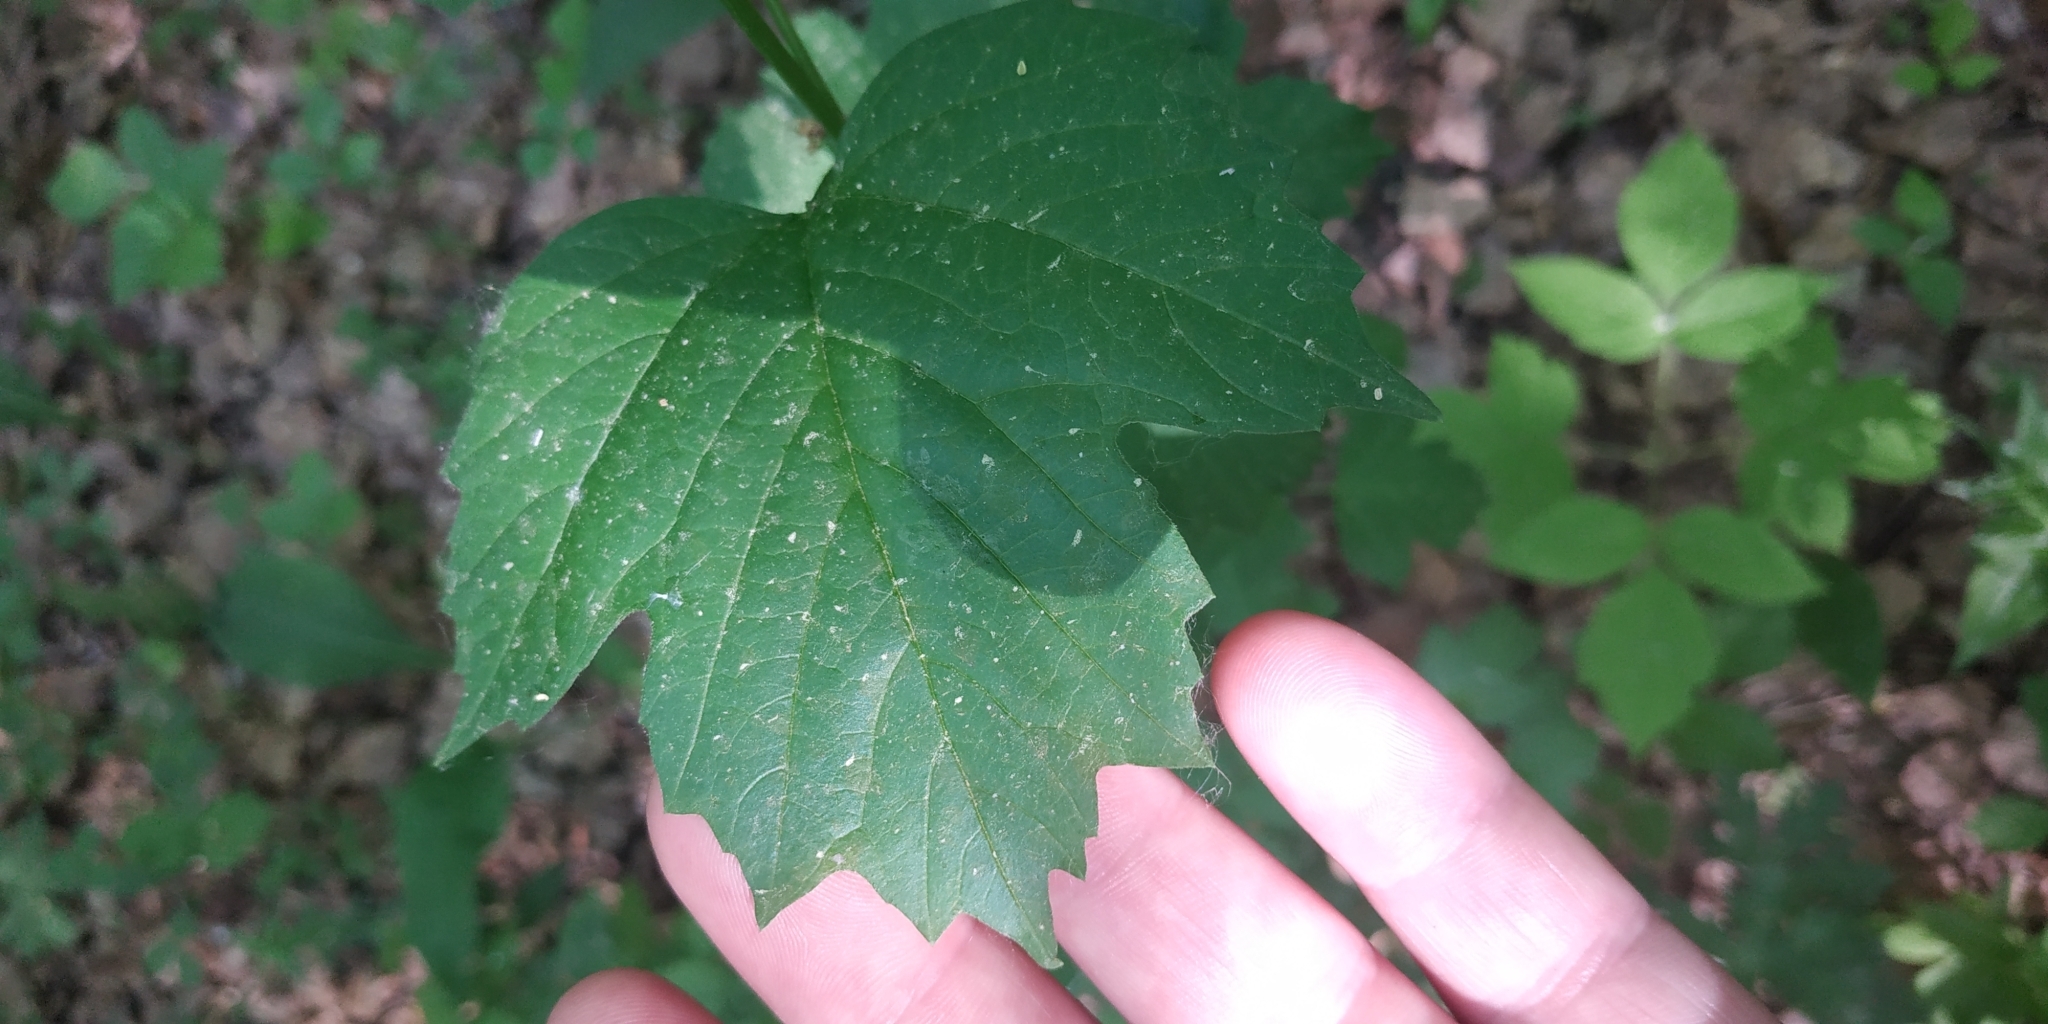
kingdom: Plantae
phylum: Tracheophyta
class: Magnoliopsida
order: Dipsacales
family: Viburnaceae
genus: Viburnum
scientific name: Viburnum opulus
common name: Guelder-rose
